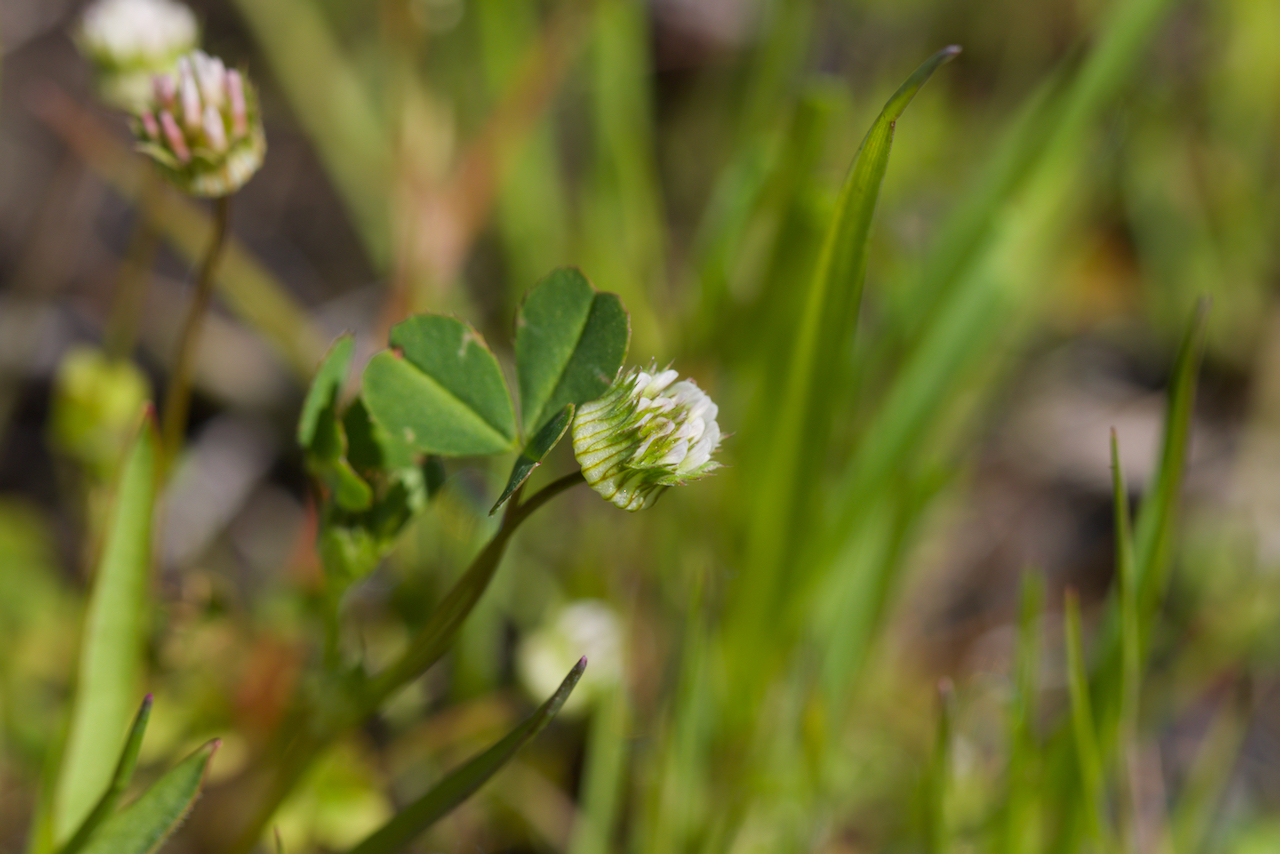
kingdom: Plantae
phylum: Tracheophyta
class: Magnoliopsida
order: Fabales
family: Fabaceae
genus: Trifolium
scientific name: Trifolium microdon
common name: Thimble clover
